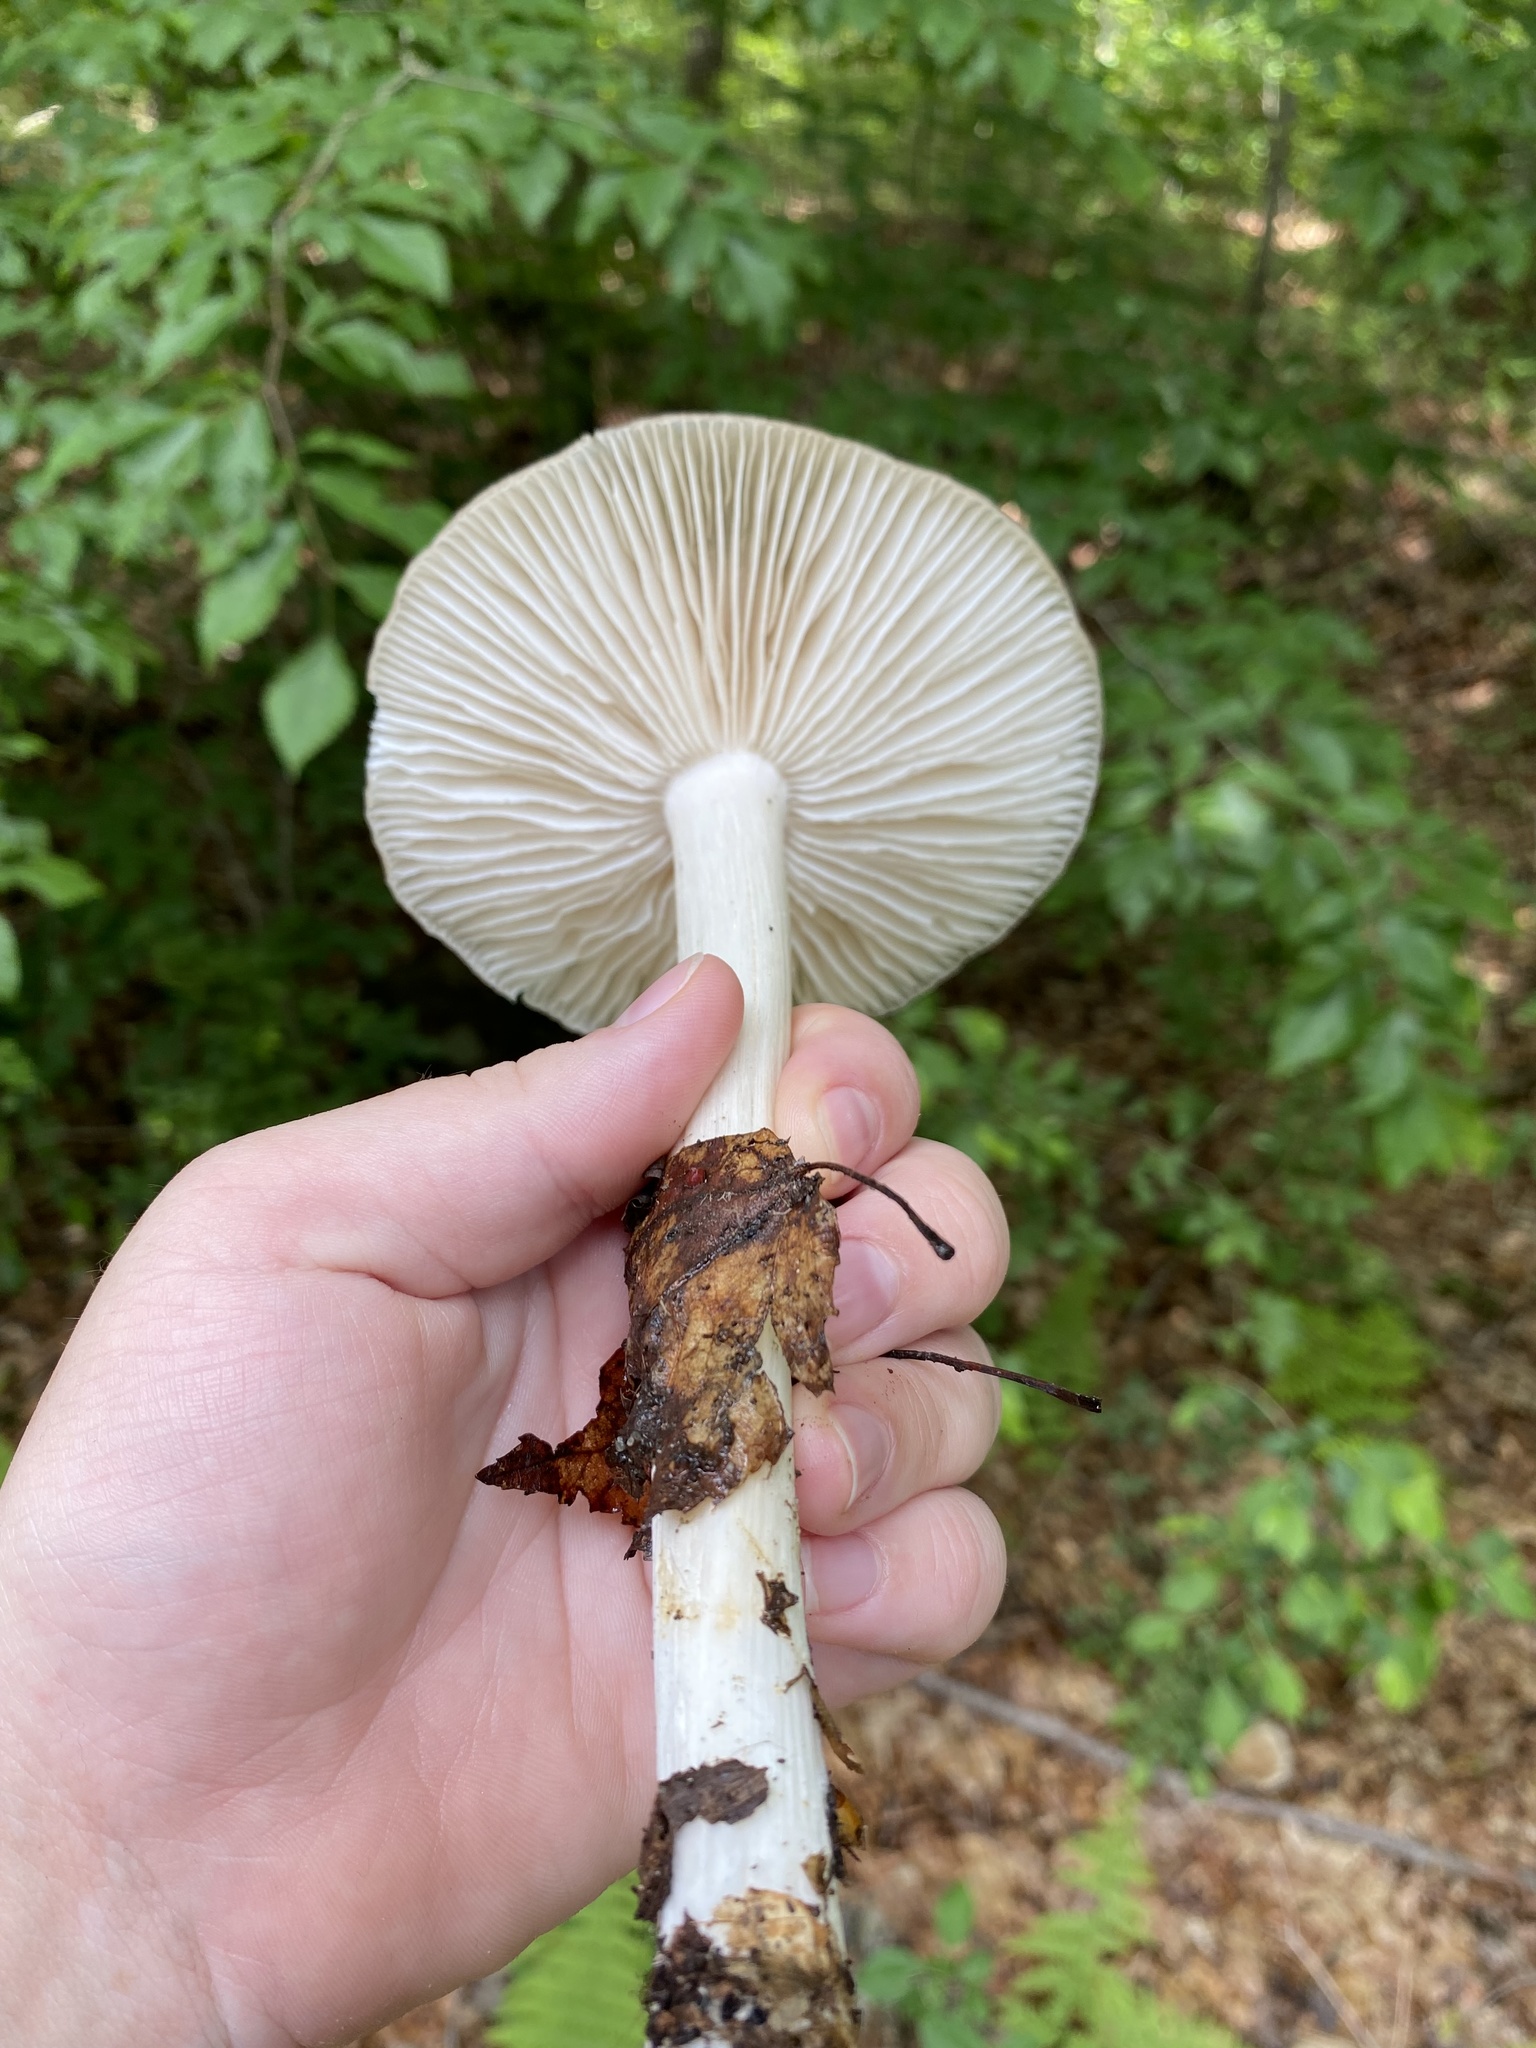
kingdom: Fungi
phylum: Basidiomycota
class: Agaricomycetes
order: Agaricales
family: Tricholomataceae
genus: Megacollybia
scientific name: Megacollybia rodmanii
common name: Eastern american platterful mushroom
